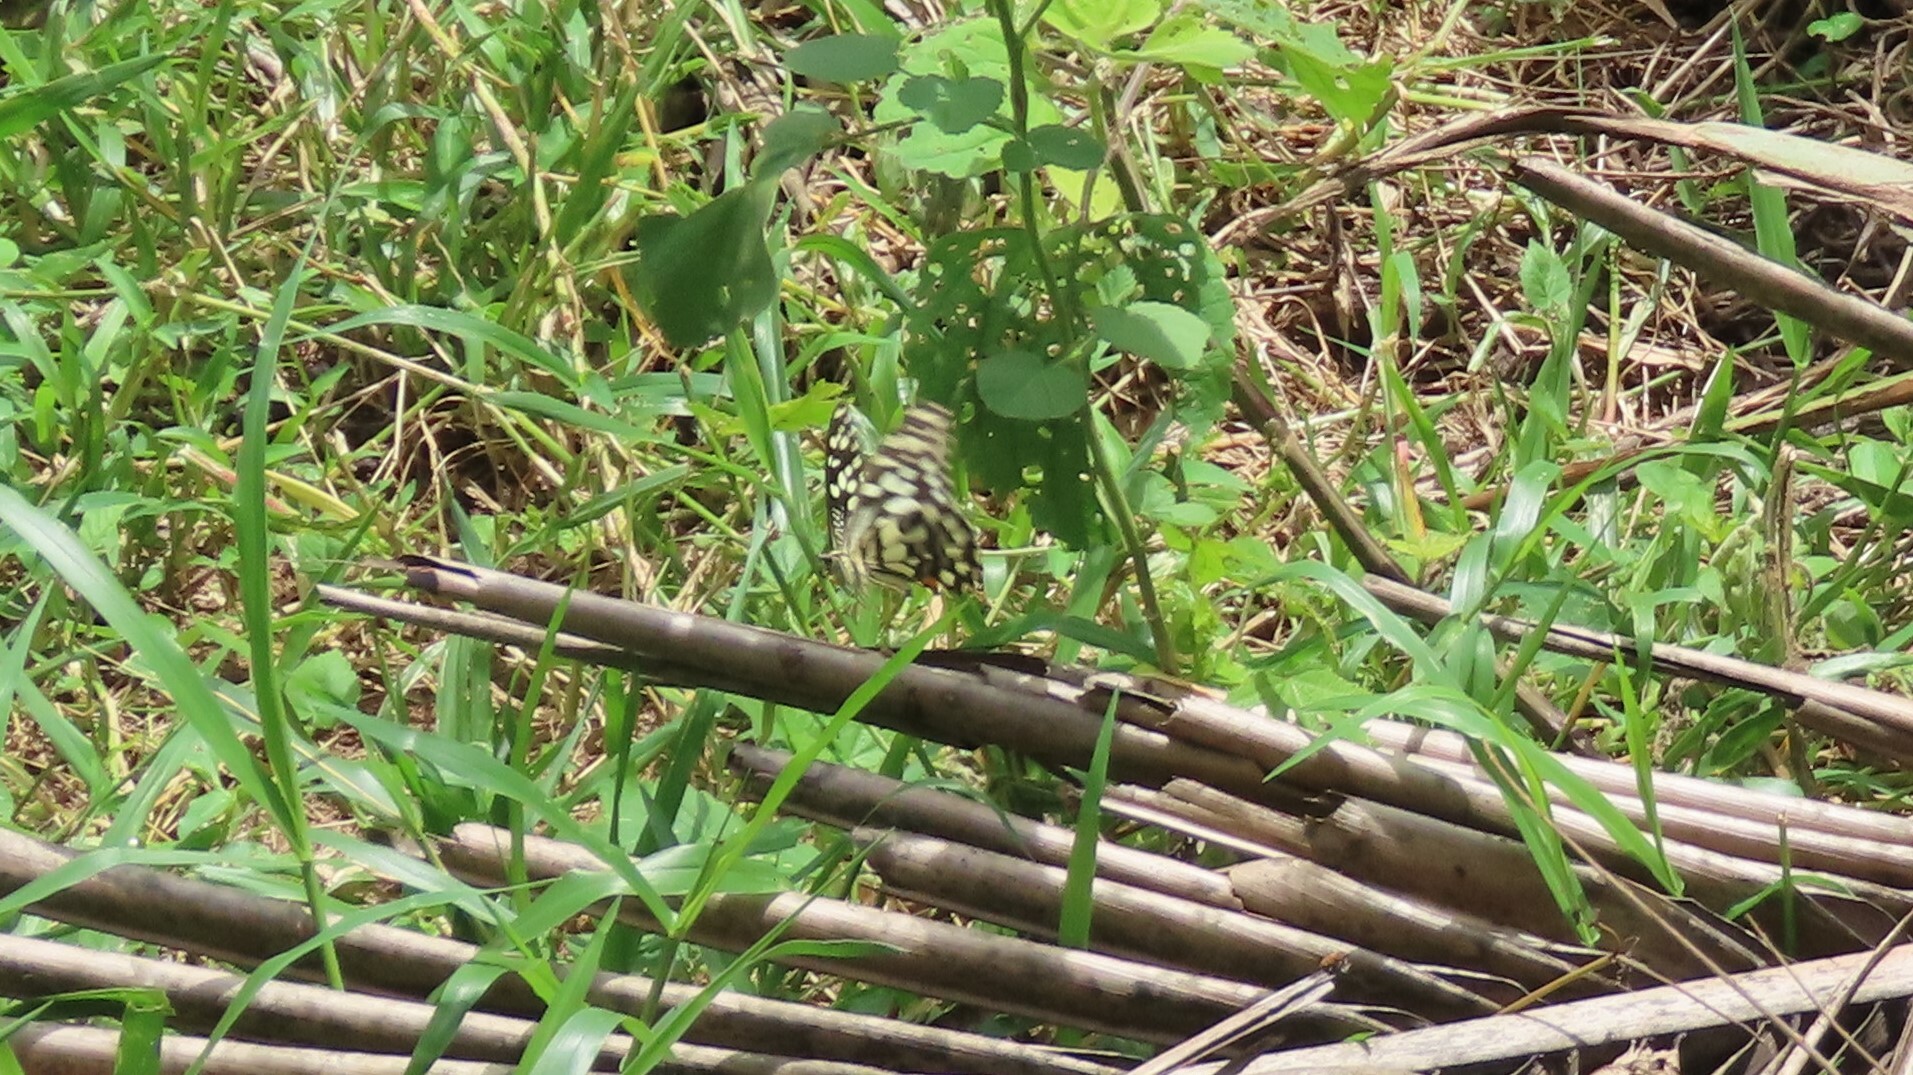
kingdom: Animalia
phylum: Arthropoda
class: Insecta
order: Lepidoptera
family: Papilionidae
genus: Papilio
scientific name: Papilio demoleus
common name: Lime butterfly
